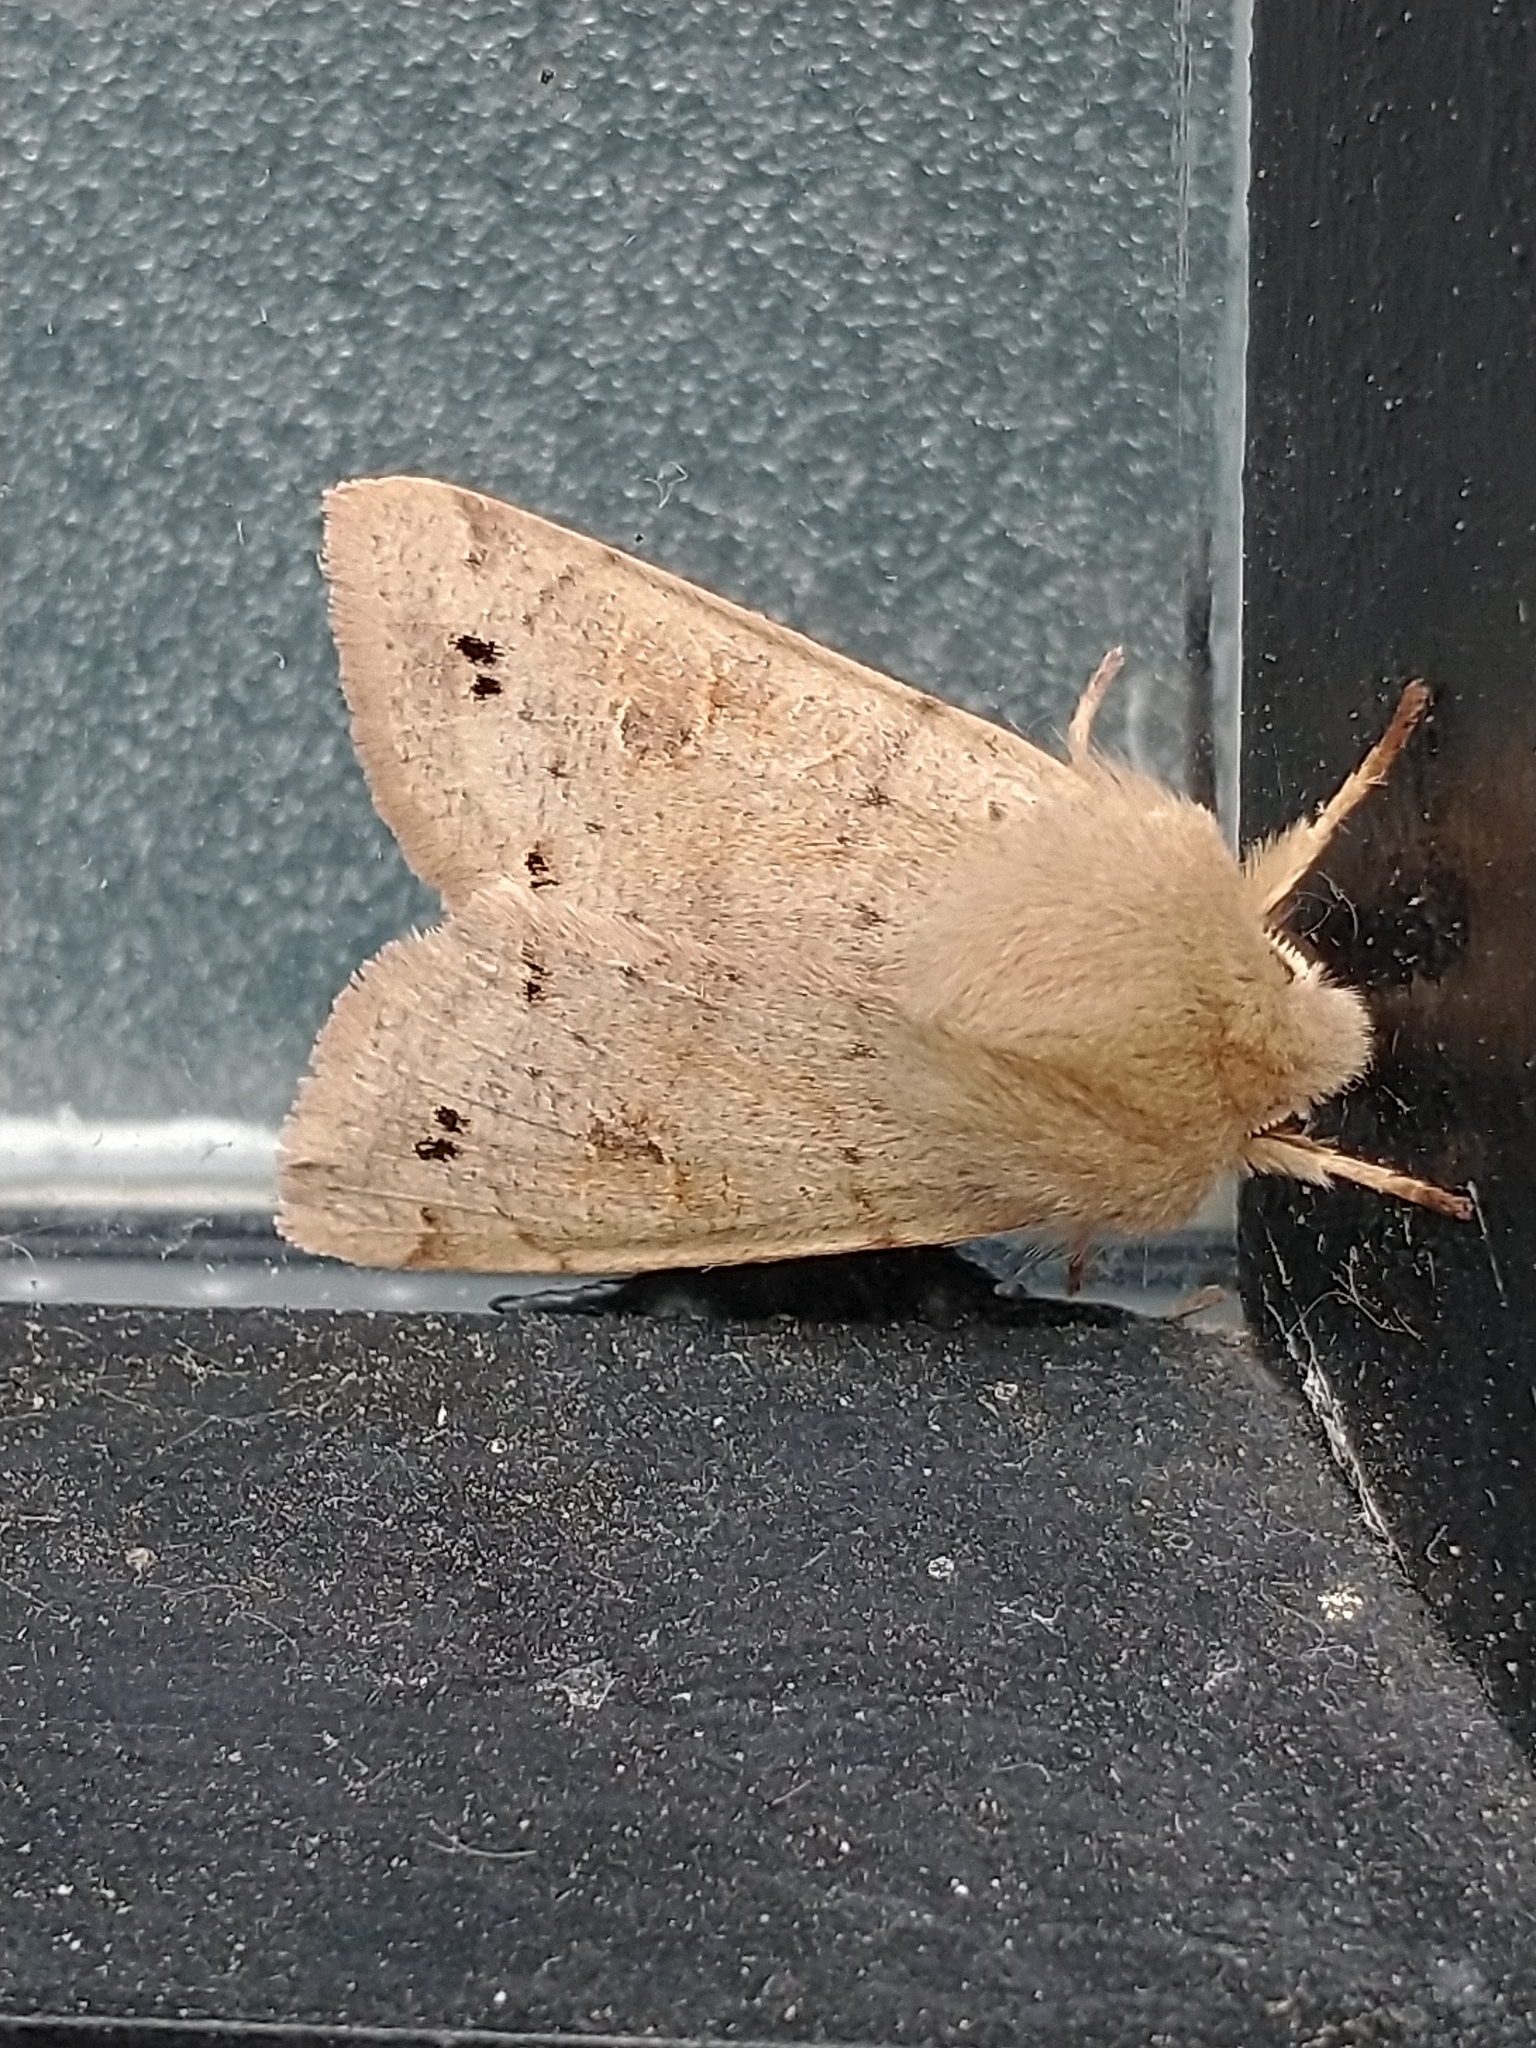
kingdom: Animalia
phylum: Arthropoda
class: Insecta
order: Lepidoptera
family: Noctuidae
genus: Anorthoa
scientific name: Anorthoa munda
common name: Twin-spotted quaker
